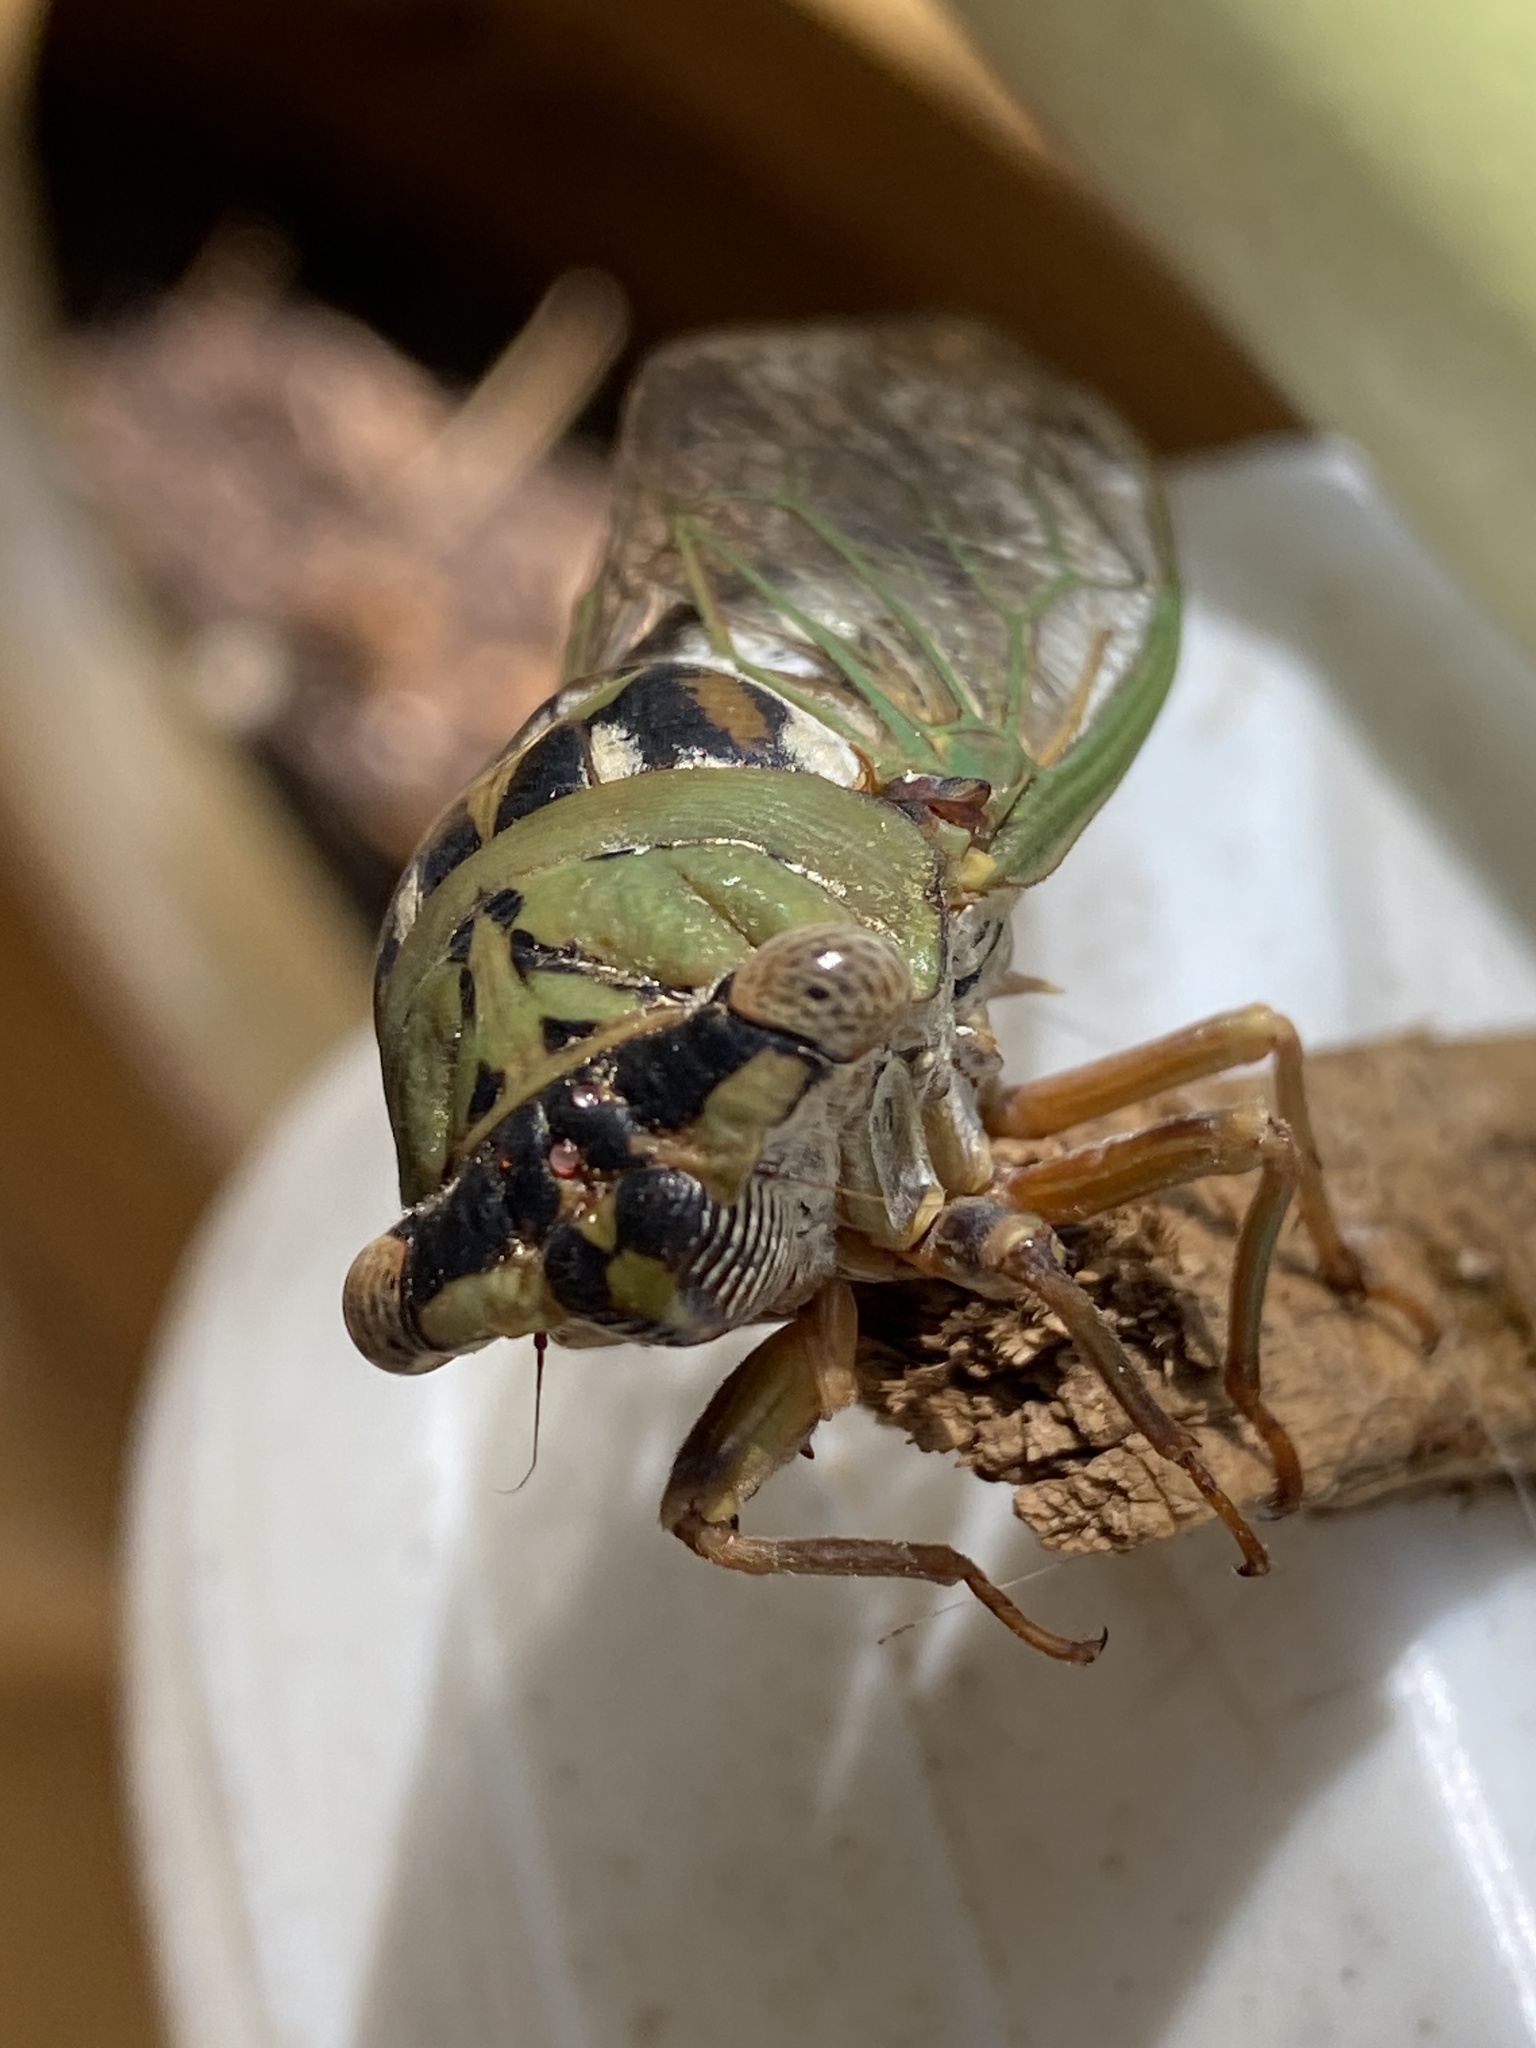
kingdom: Animalia
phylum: Arthropoda
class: Insecta
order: Hemiptera
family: Cicadidae
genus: Megatibicen
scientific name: Megatibicen resh
